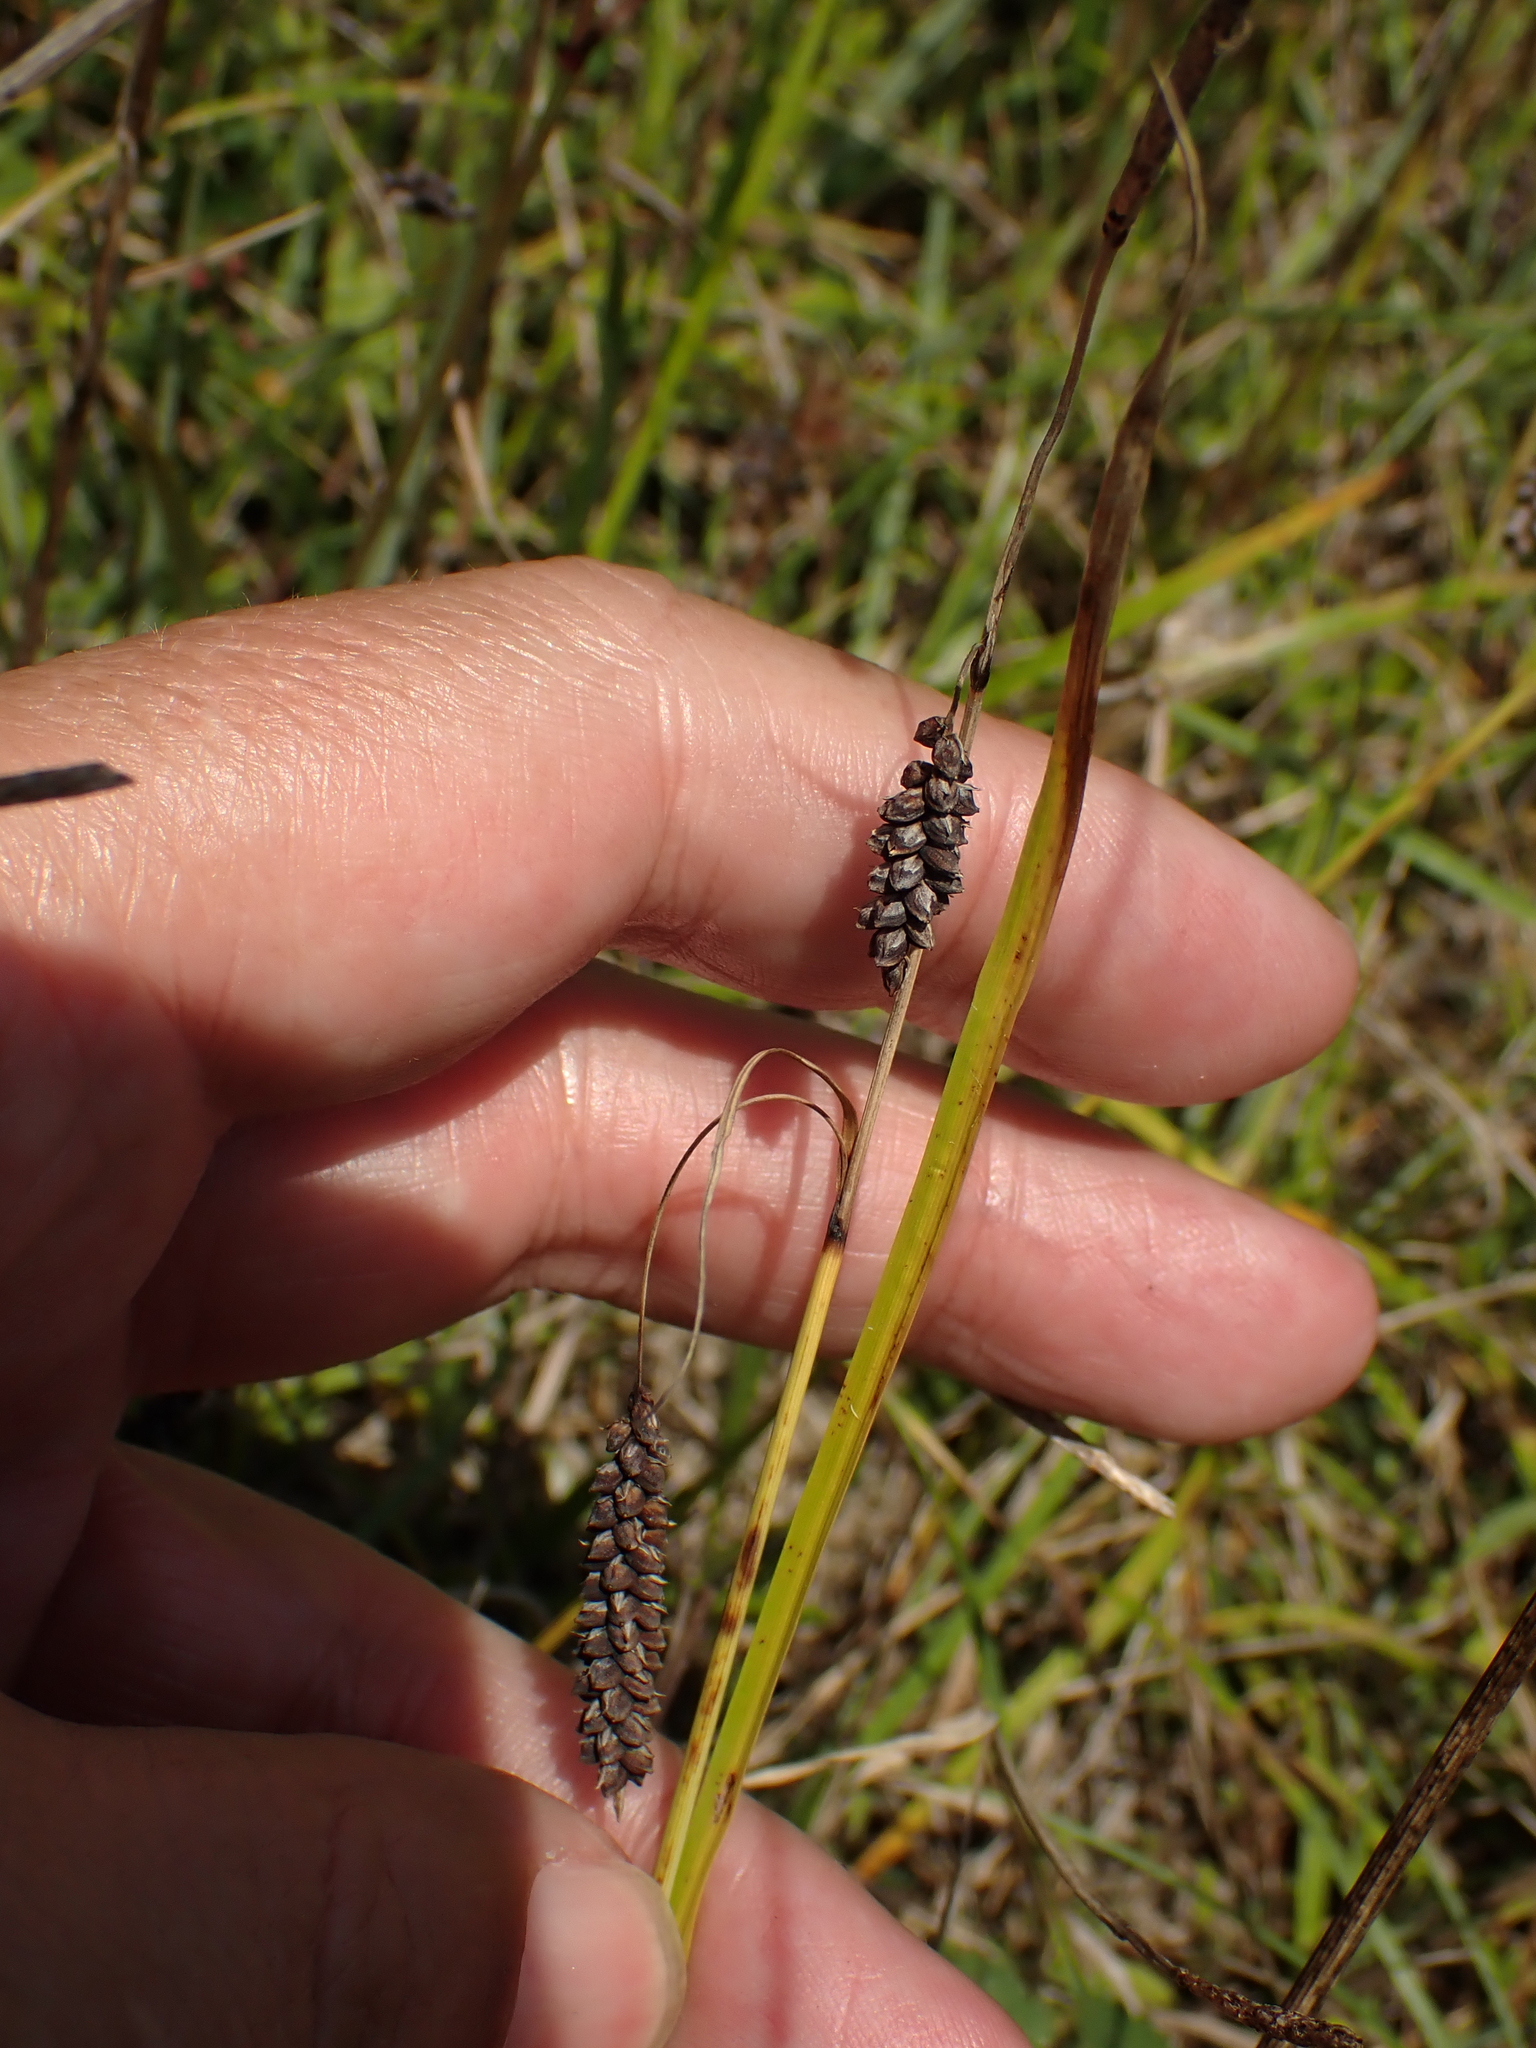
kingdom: Plantae
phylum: Tracheophyta
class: Liliopsida
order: Poales
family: Cyperaceae
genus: Carex
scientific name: Carex flacca
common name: Glaucous sedge
